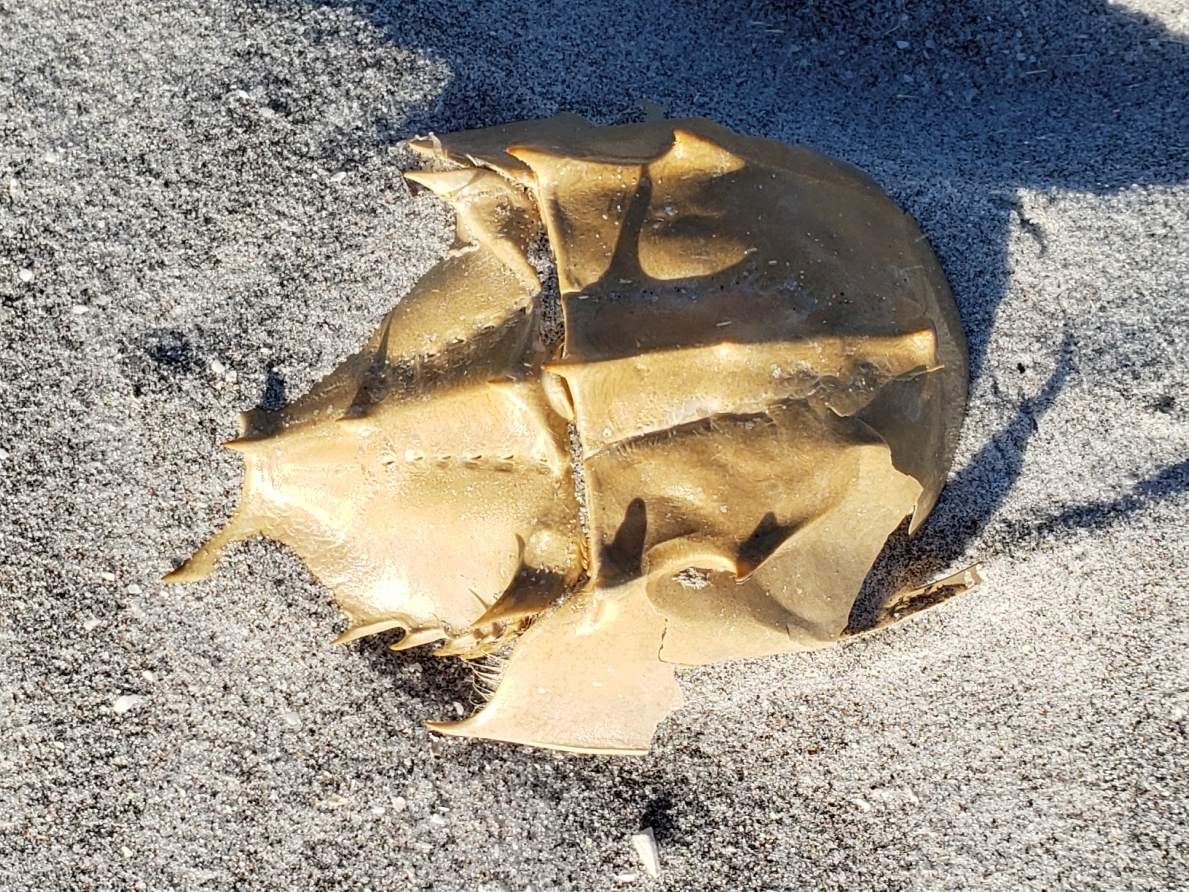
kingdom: Animalia
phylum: Arthropoda
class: Merostomata
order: Xiphosurida
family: Limulidae
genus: Limulus
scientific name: Limulus polyphemus
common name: Horseshoe crab
